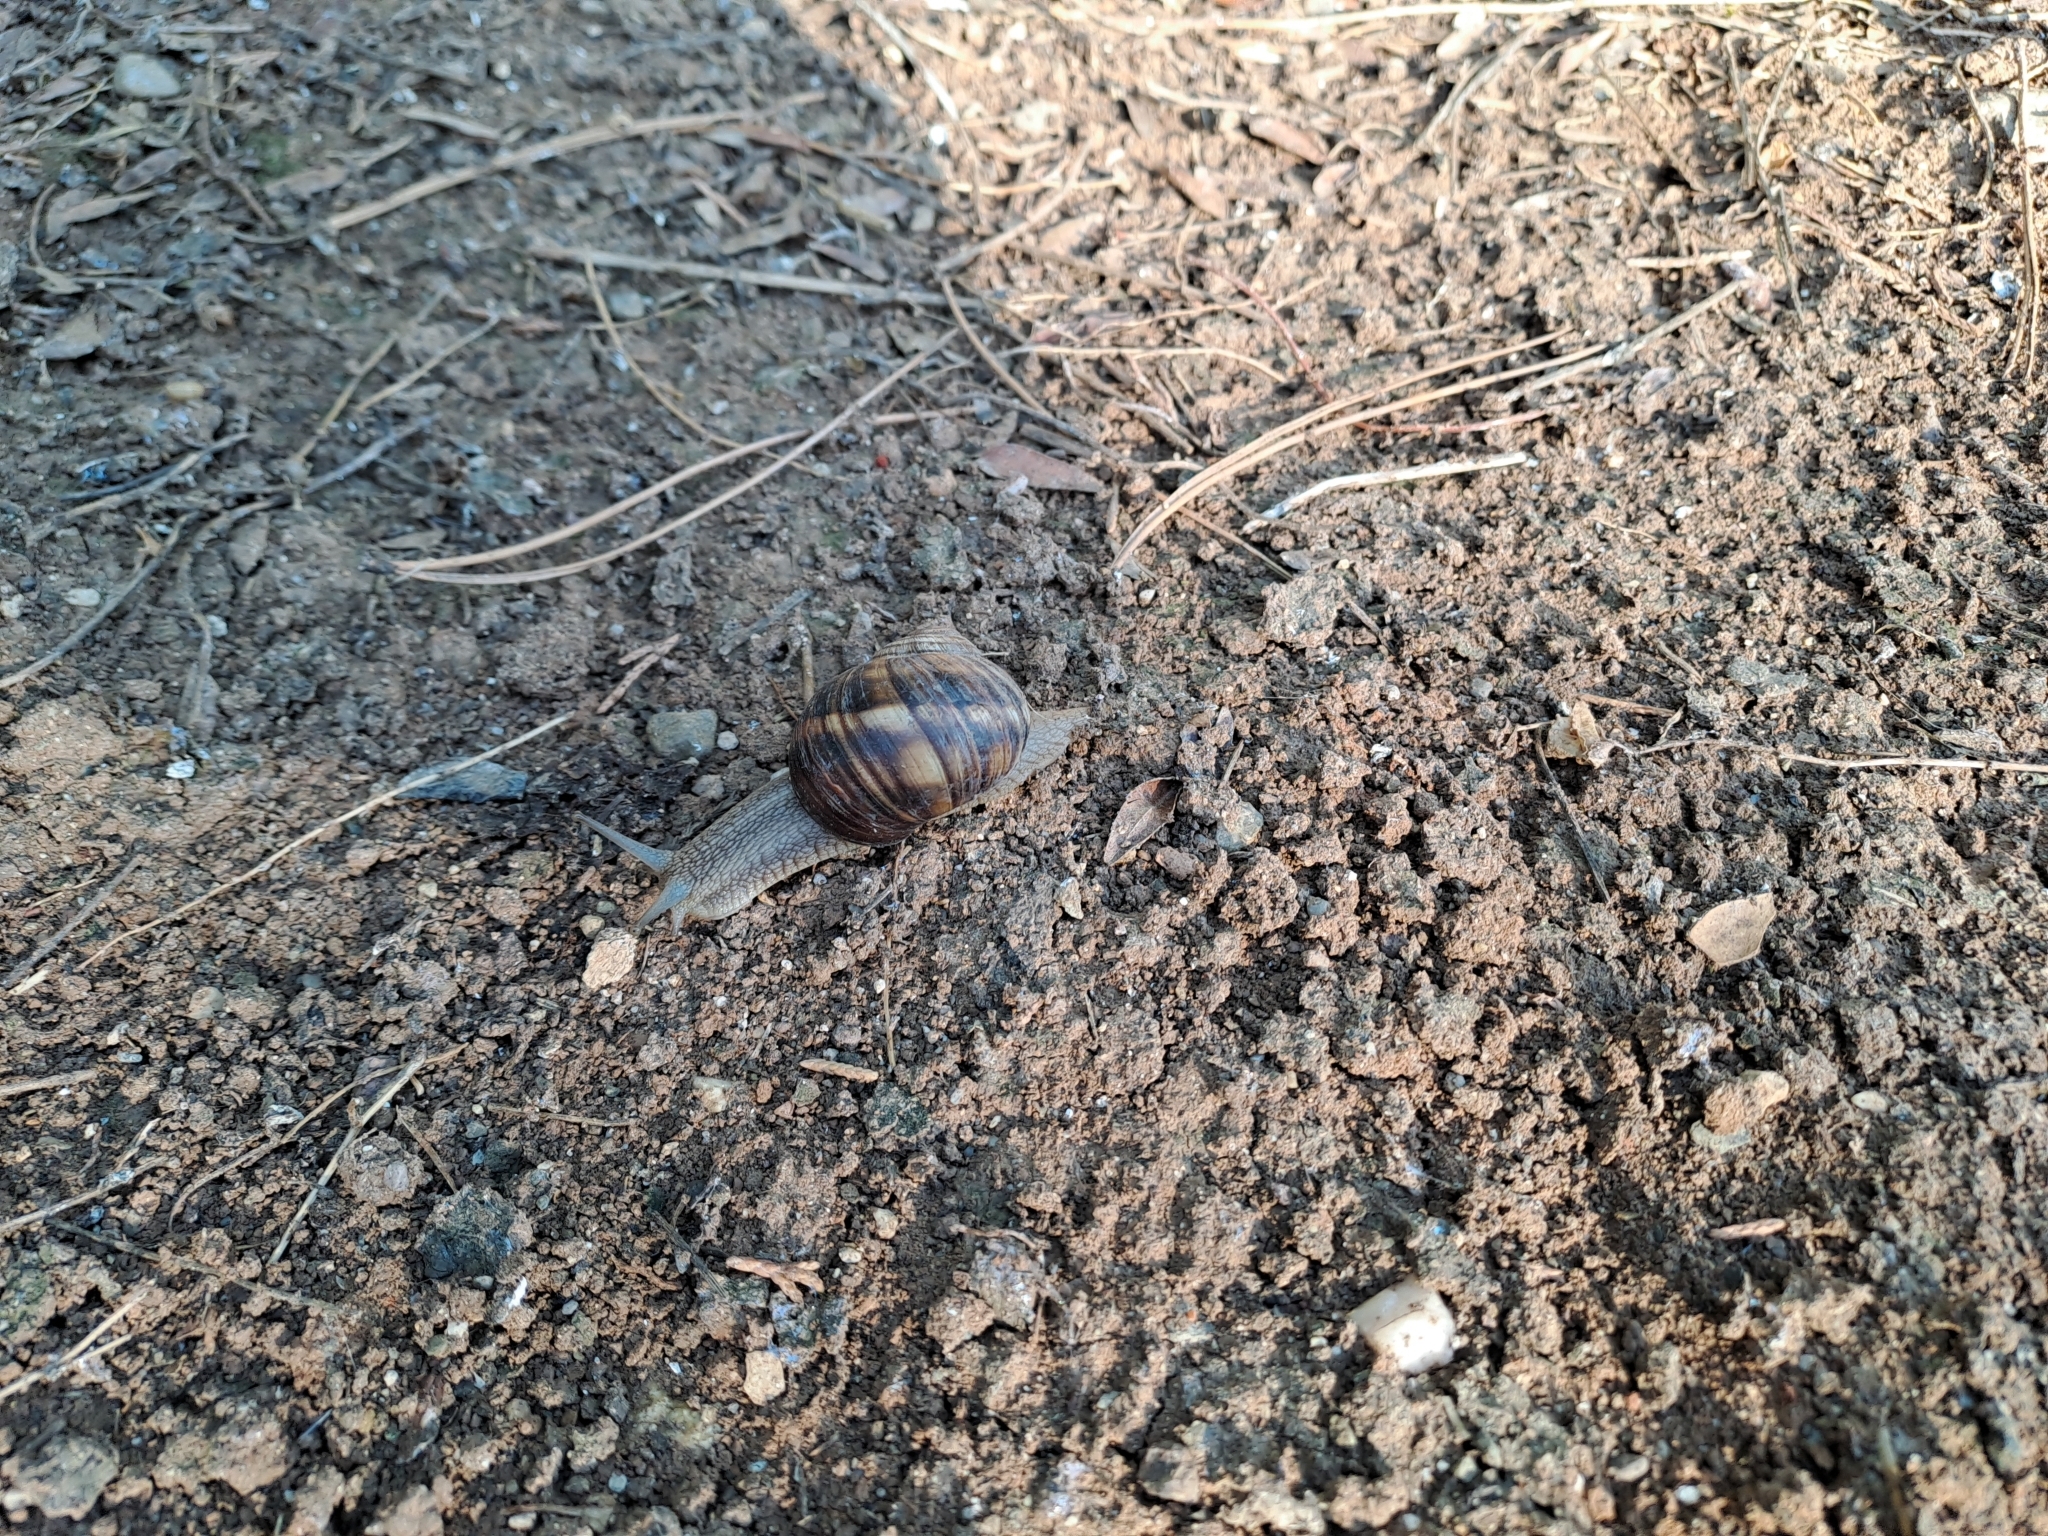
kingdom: Animalia
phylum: Mollusca
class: Gastropoda
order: Stylommatophora
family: Helicidae
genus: Helix
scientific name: Helix lucorum
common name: Turkish snail
